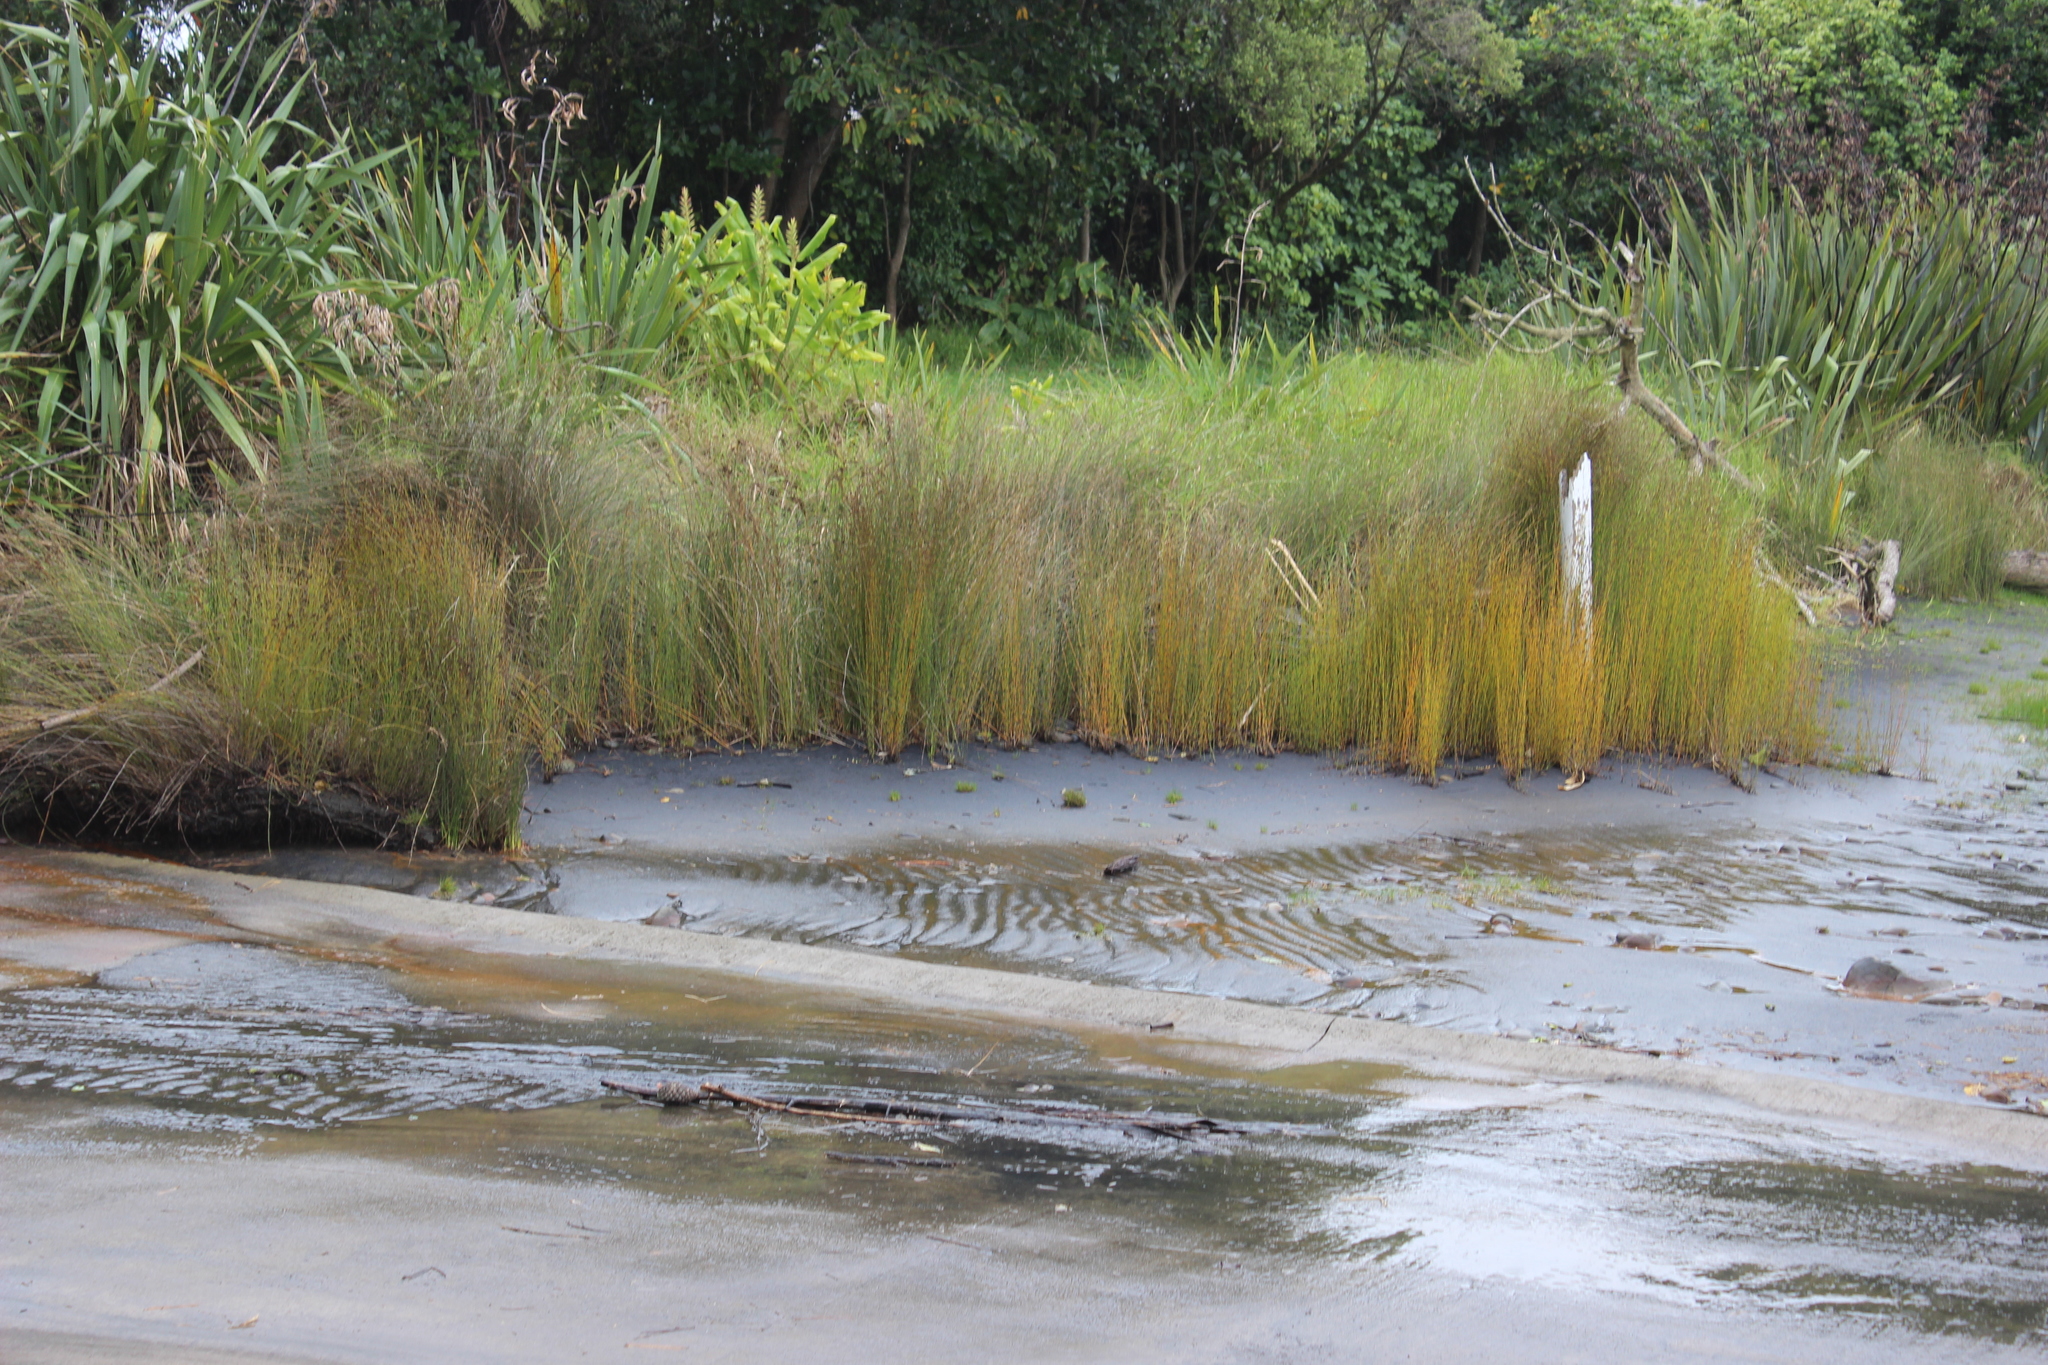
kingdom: Plantae
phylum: Tracheophyta
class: Liliopsida
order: Poales
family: Restionaceae
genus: Apodasmia
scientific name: Apodasmia similis
